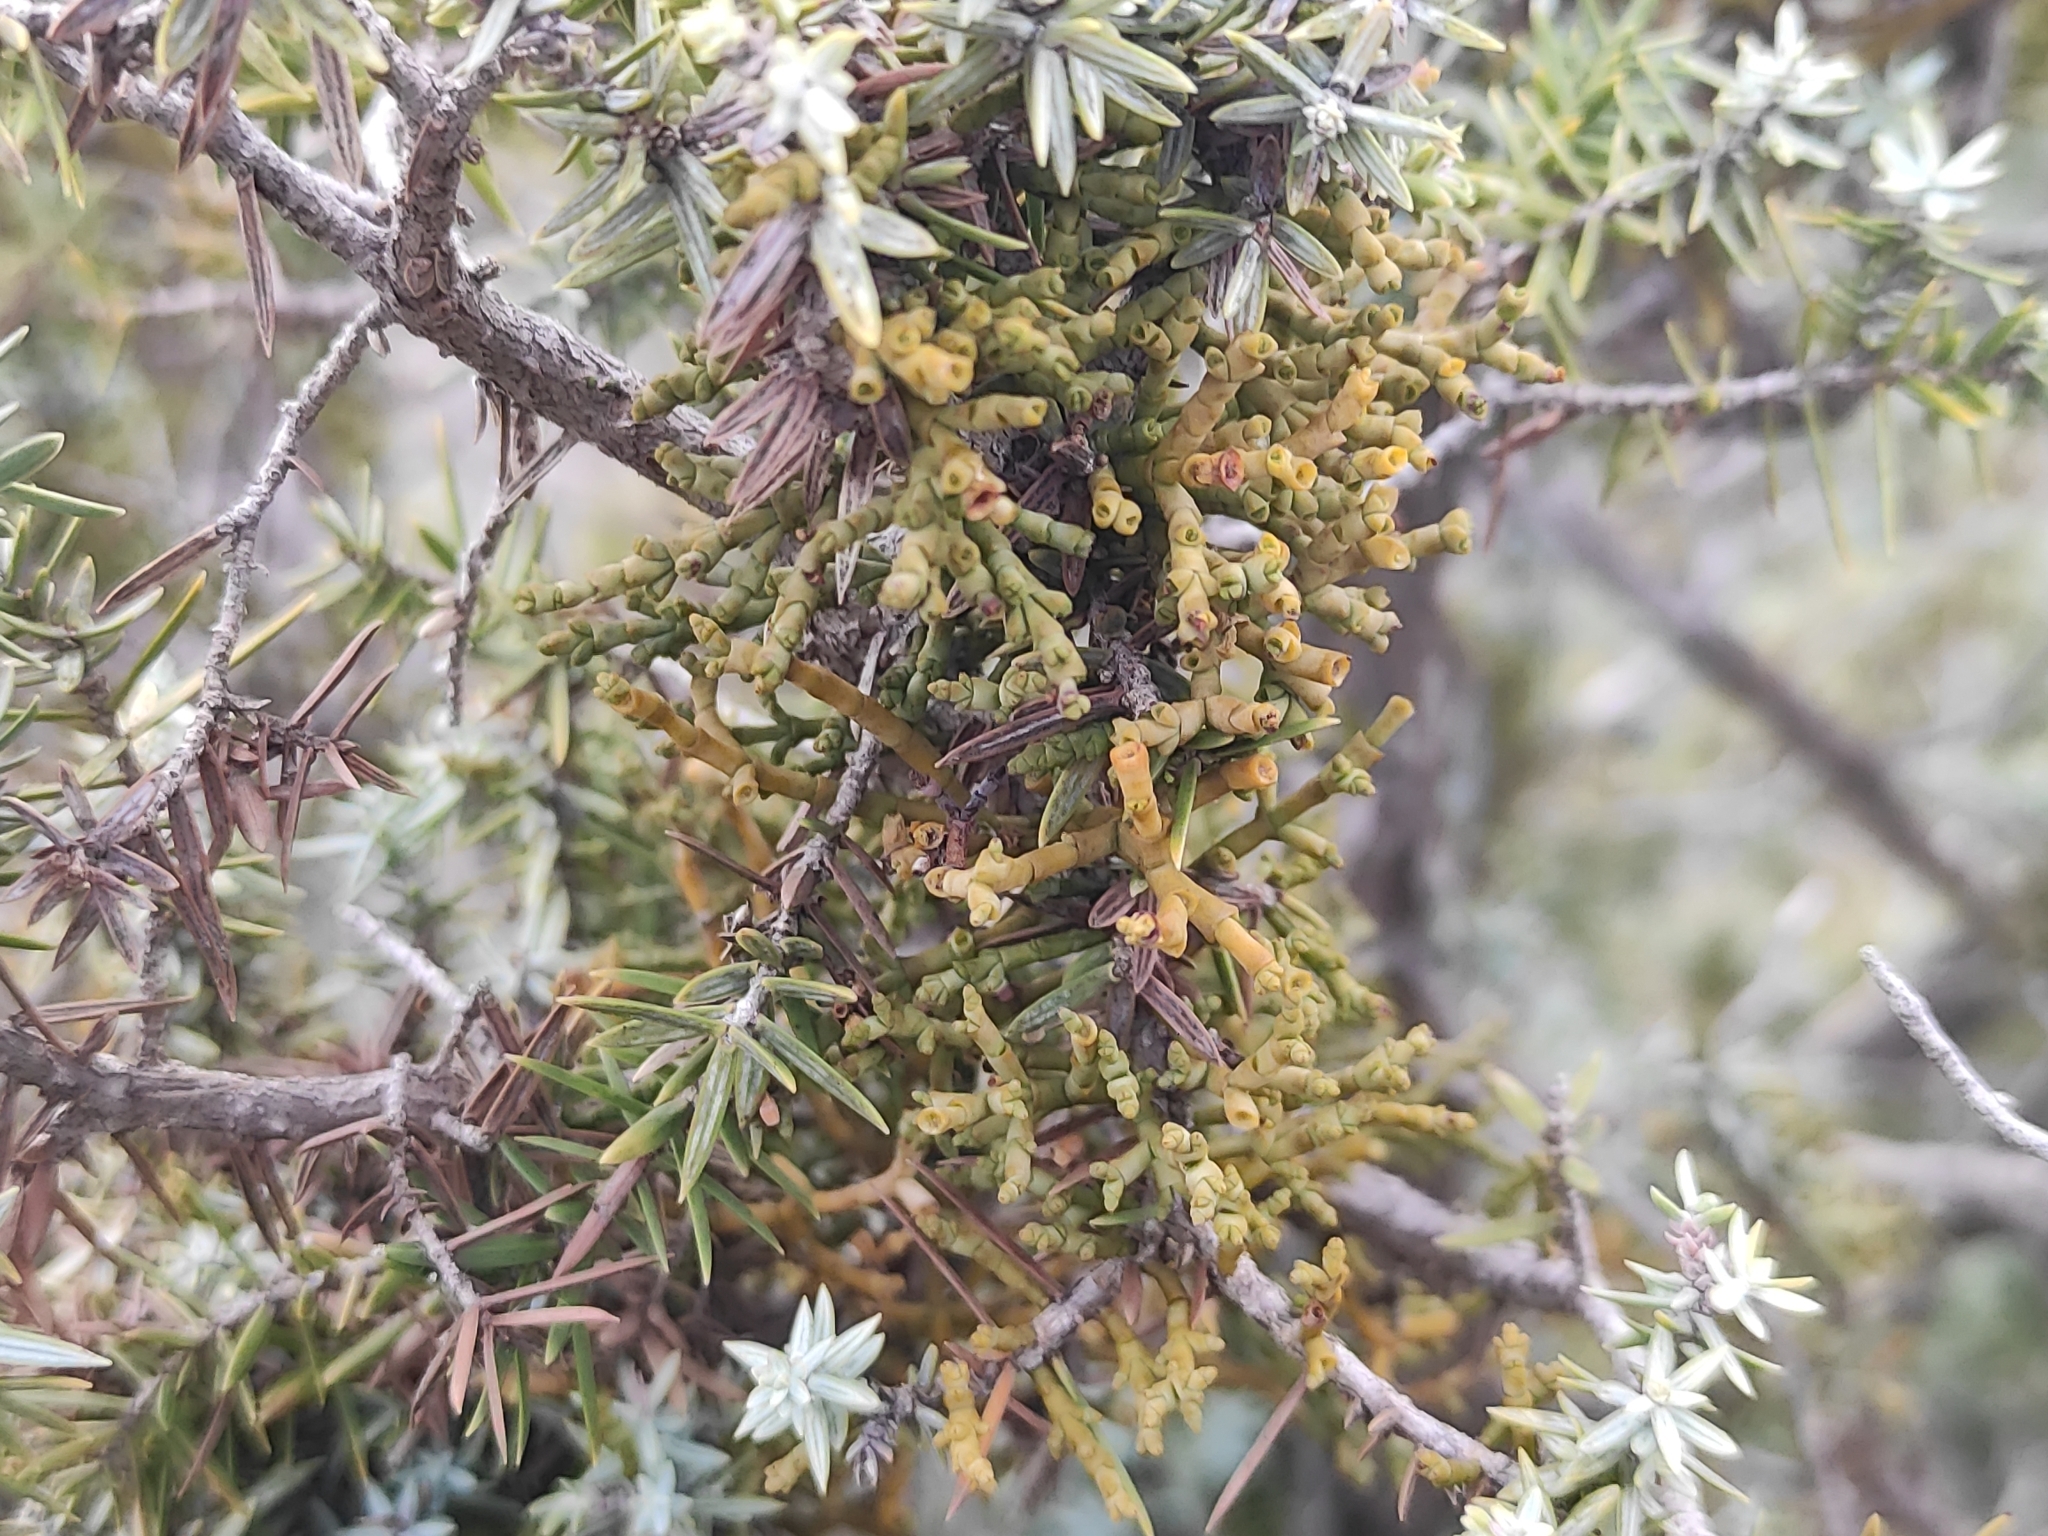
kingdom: Plantae
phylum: Tracheophyta
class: Magnoliopsida
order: Santalales
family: Viscaceae
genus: Arceuthobium
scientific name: Arceuthobium oxycedri
